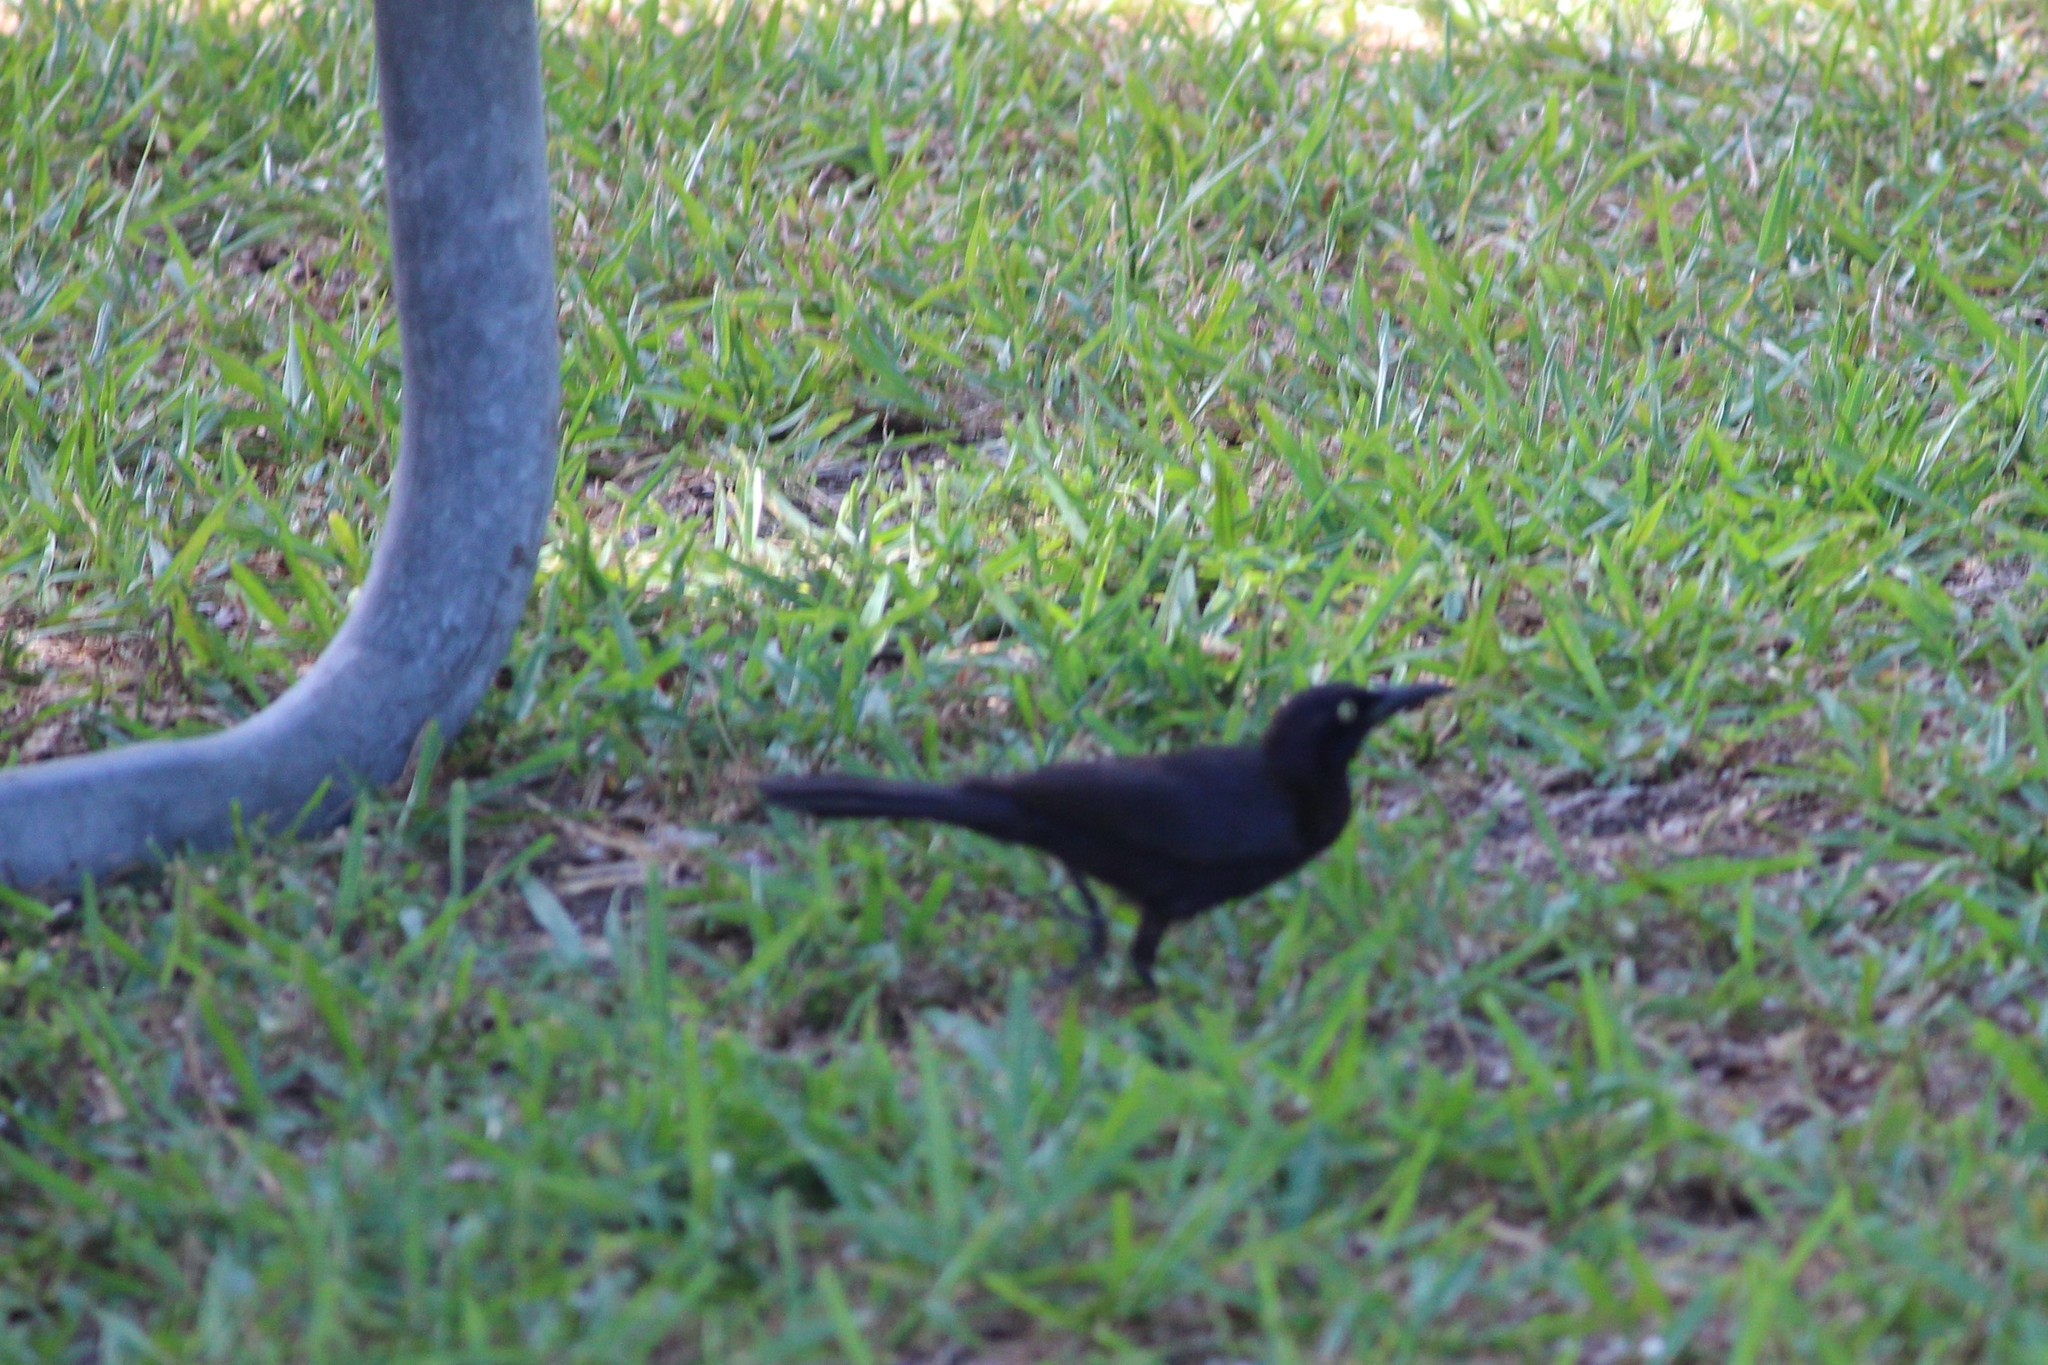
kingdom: Animalia
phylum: Chordata
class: Aves
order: Passeriformes
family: Icteridae
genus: Quiscalus
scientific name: Quiscalus quiscula
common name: Common grackle
